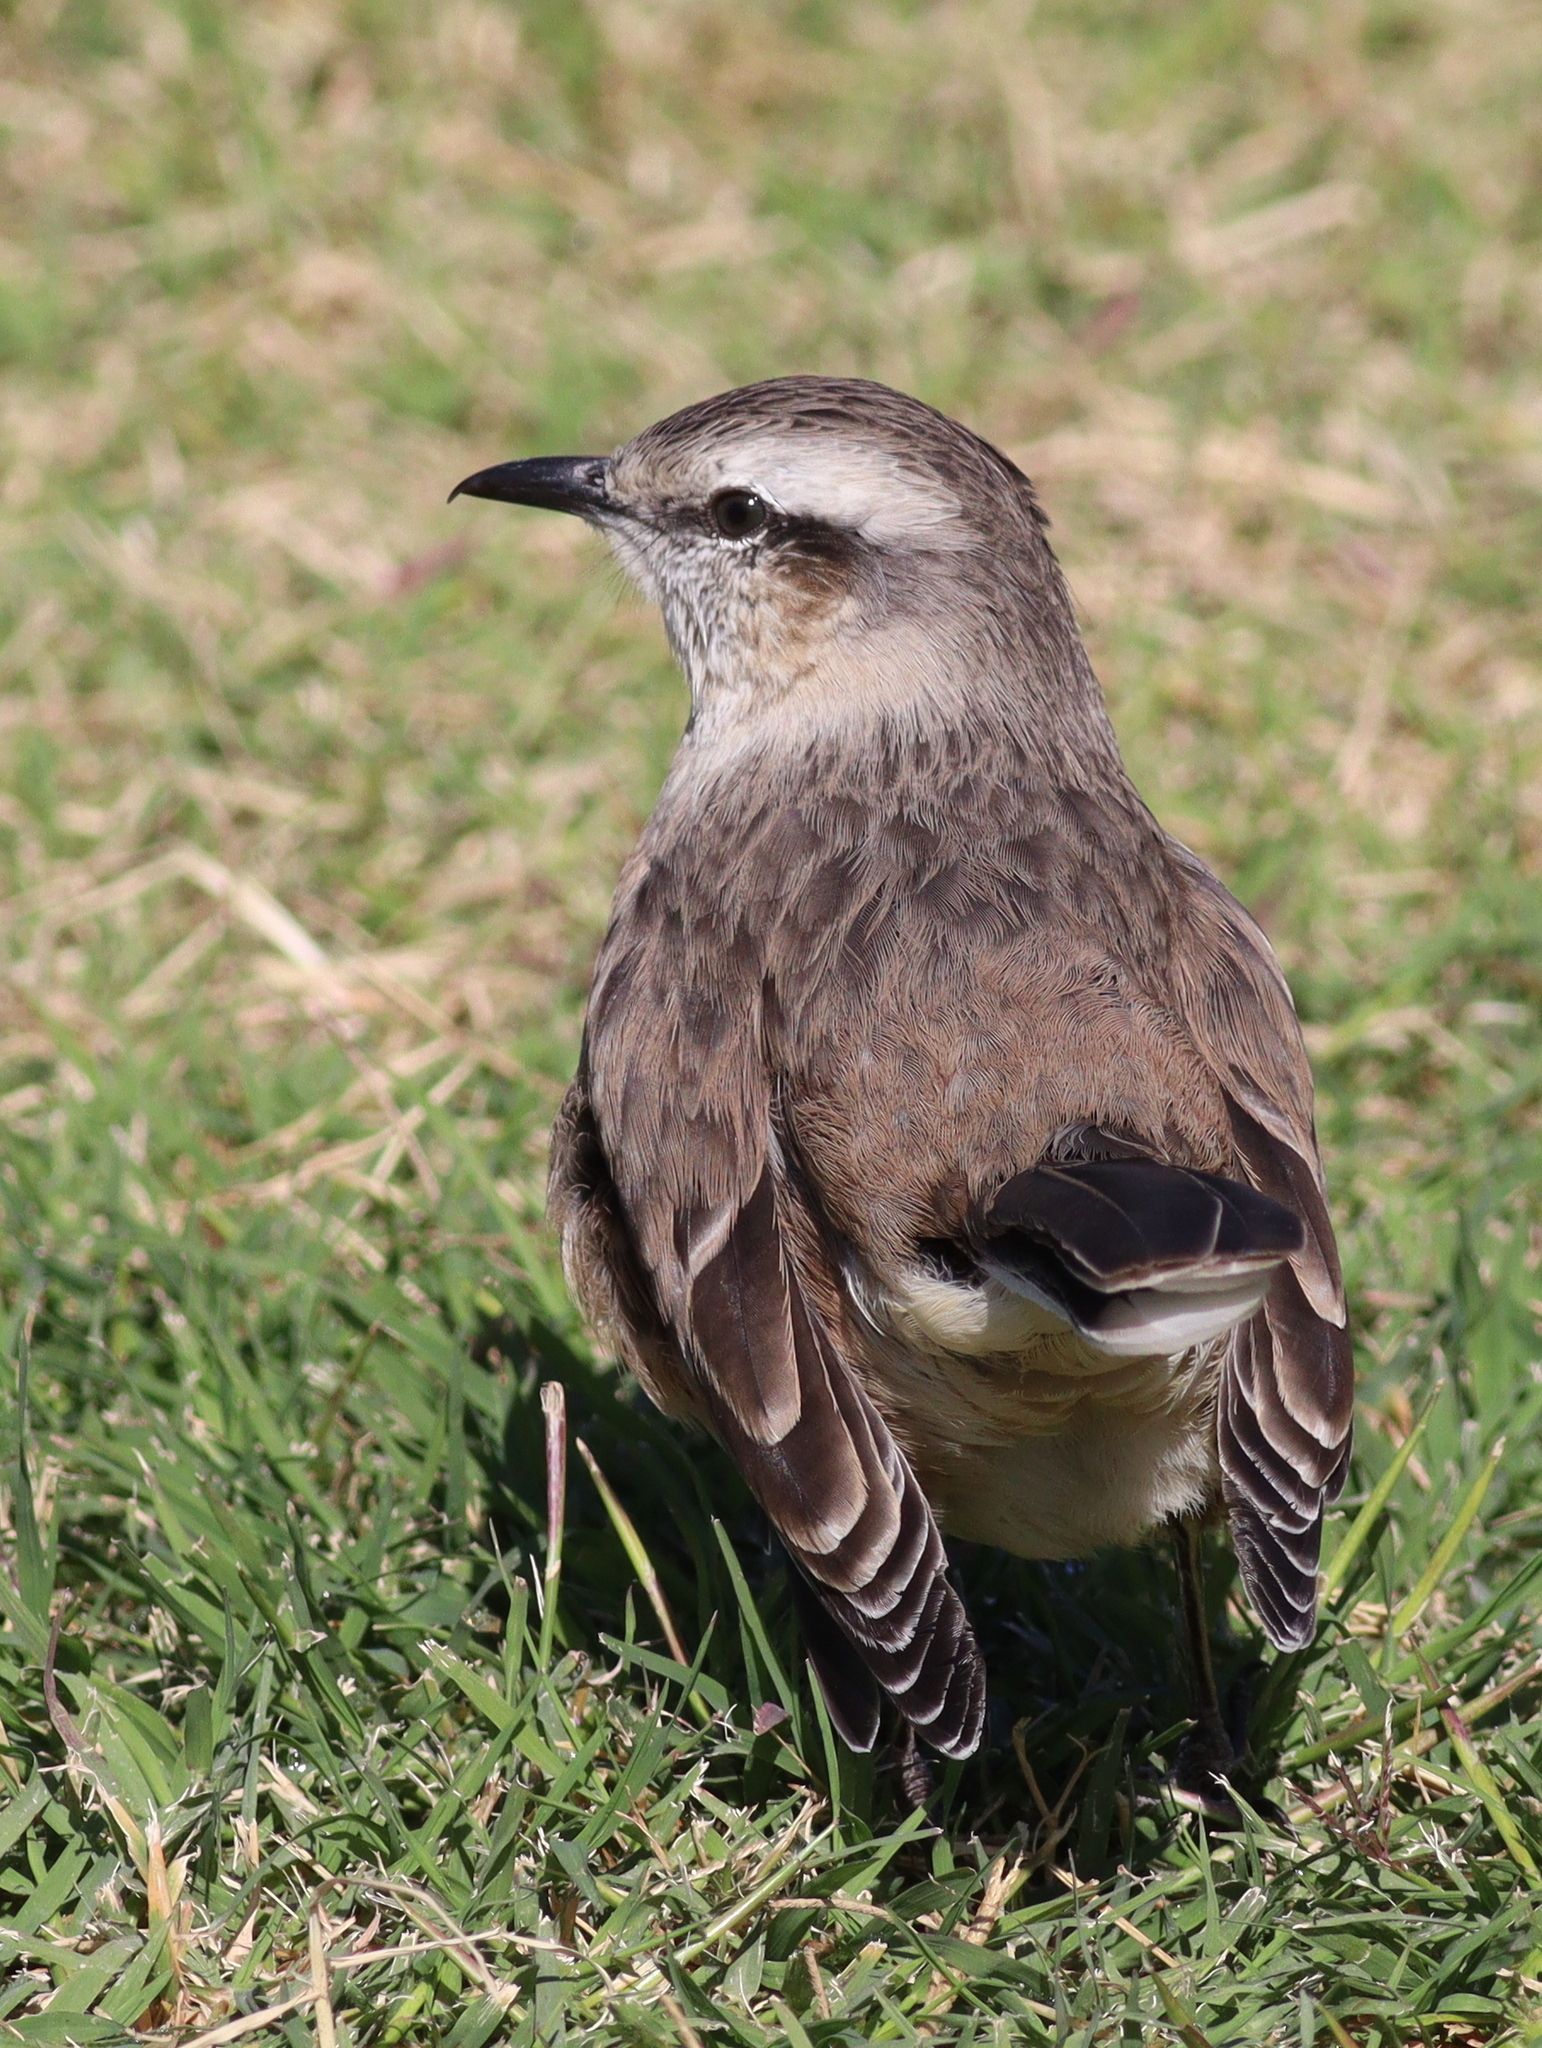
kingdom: Animalia
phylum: Chordata
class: Aves
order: Passeriformes
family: Mimidae
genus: Mimus
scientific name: Mimus saturninus
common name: Chalk-browed mockingbird
